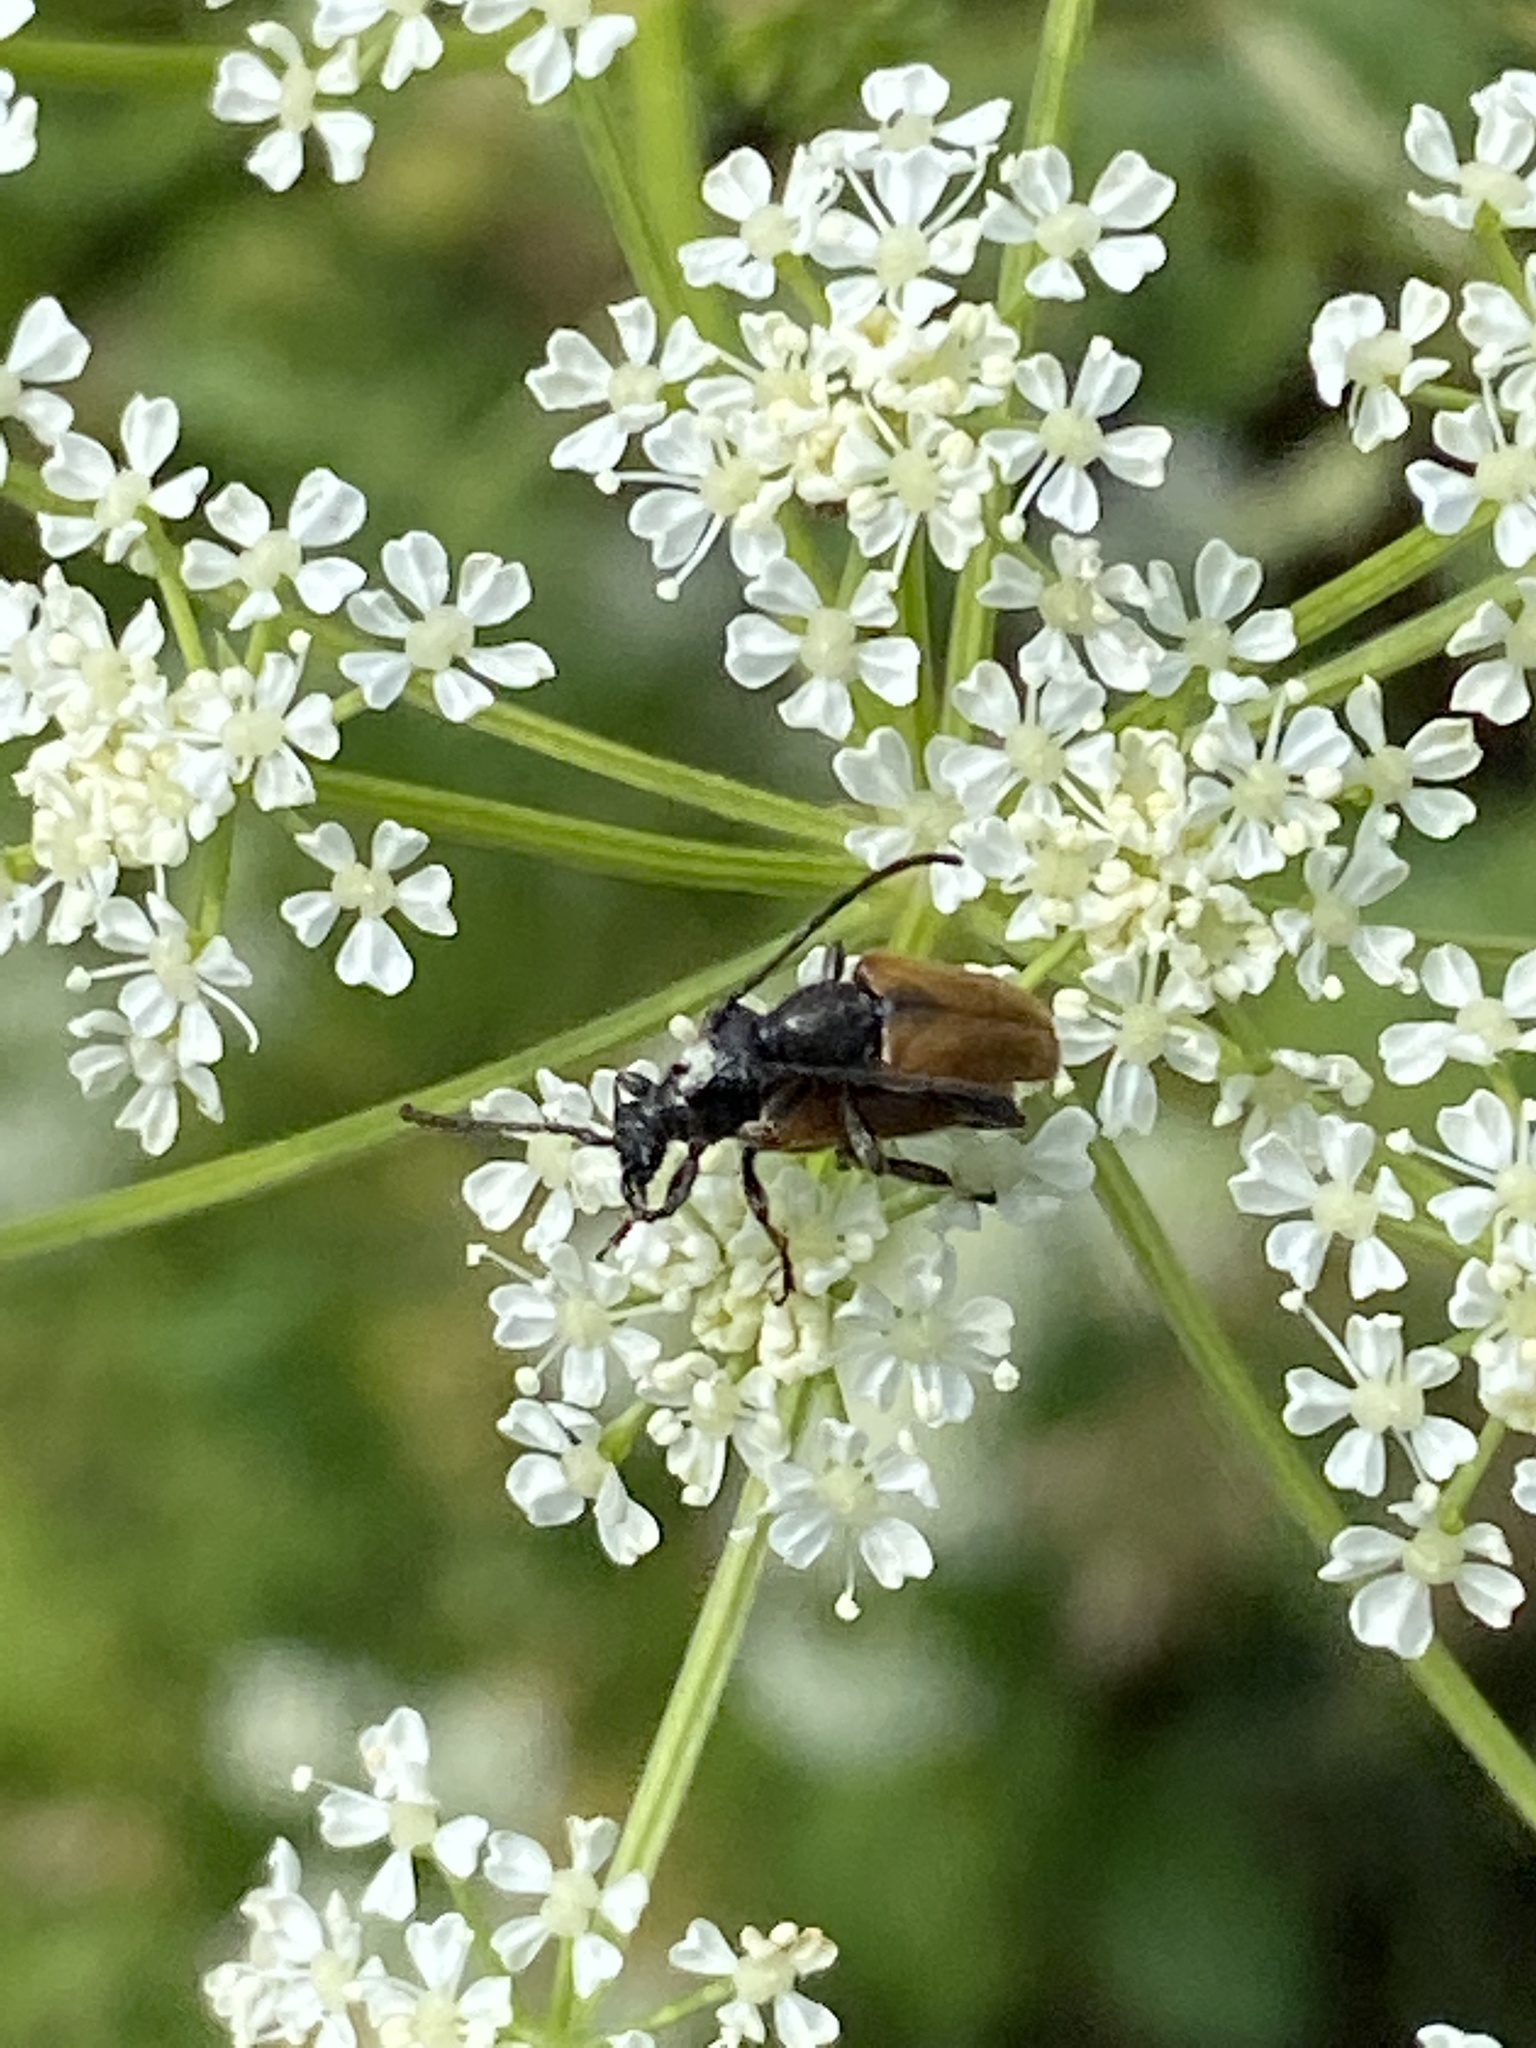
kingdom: Animalia
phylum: Arthropoda
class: Insecta
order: Coleoptera
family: Cerambycidae
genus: Pseudovadonia
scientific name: Pseudovadonia livida
